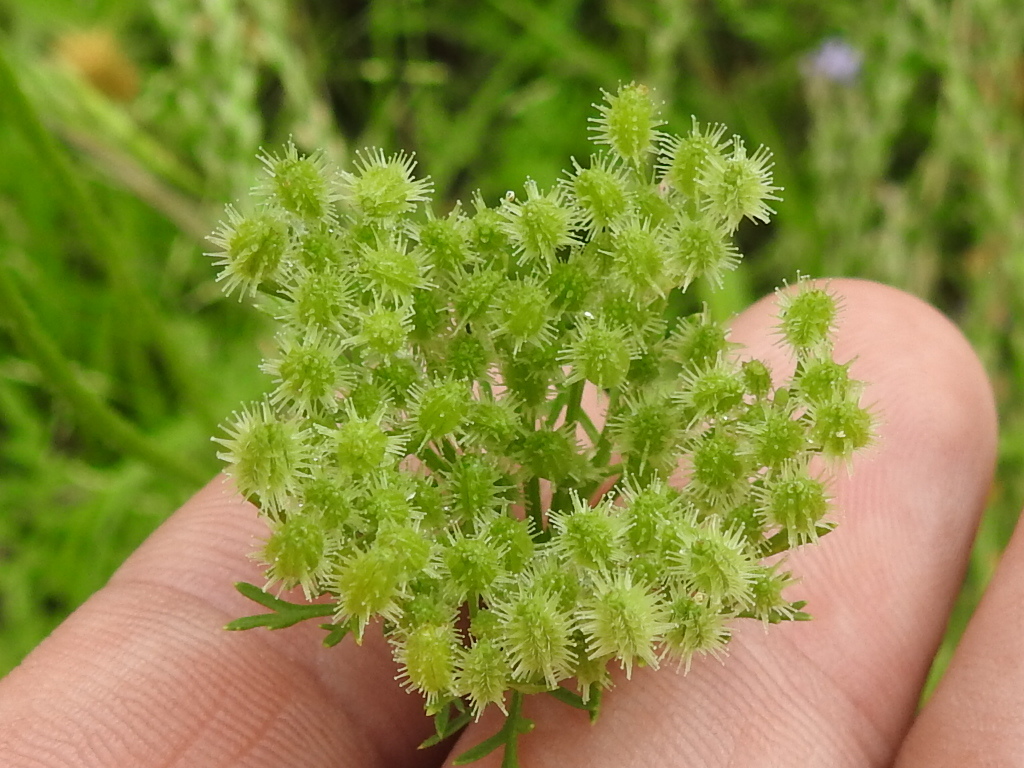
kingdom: Plantae
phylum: Tracheophyta
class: Magnoliopsida
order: Apiales
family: Apiaceae
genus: Daucus
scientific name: Daucus pusillus
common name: Southwest wild carrot
